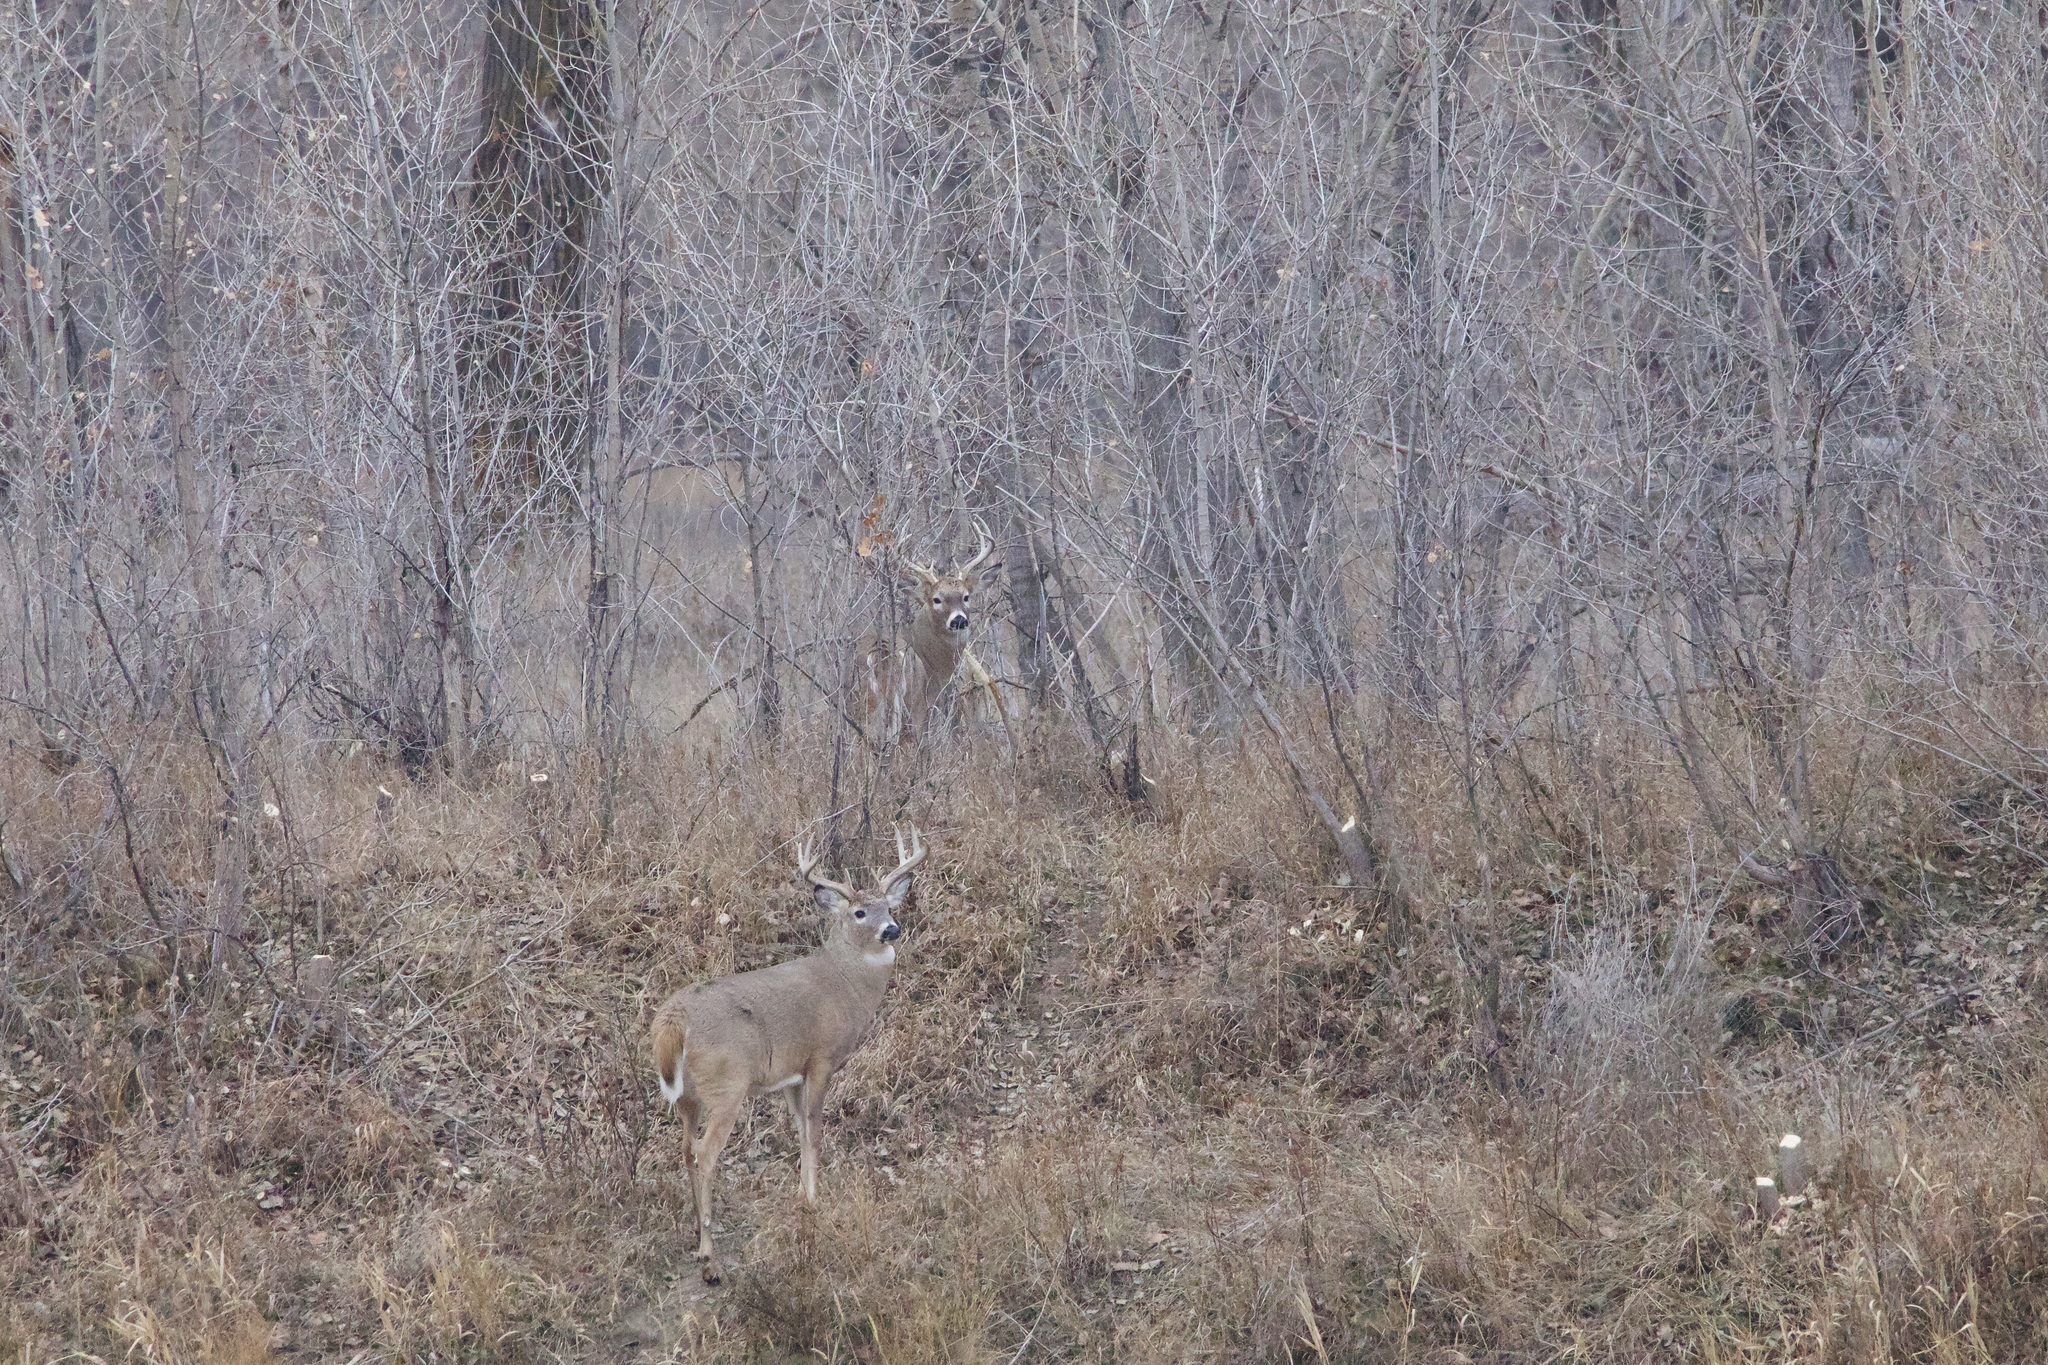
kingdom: Animalia
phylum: Chordata
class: Mammalia
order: Artiodactyla
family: Cervidae
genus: Odocoileus
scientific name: Odocoileus virginianus
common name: White-tailed deer
